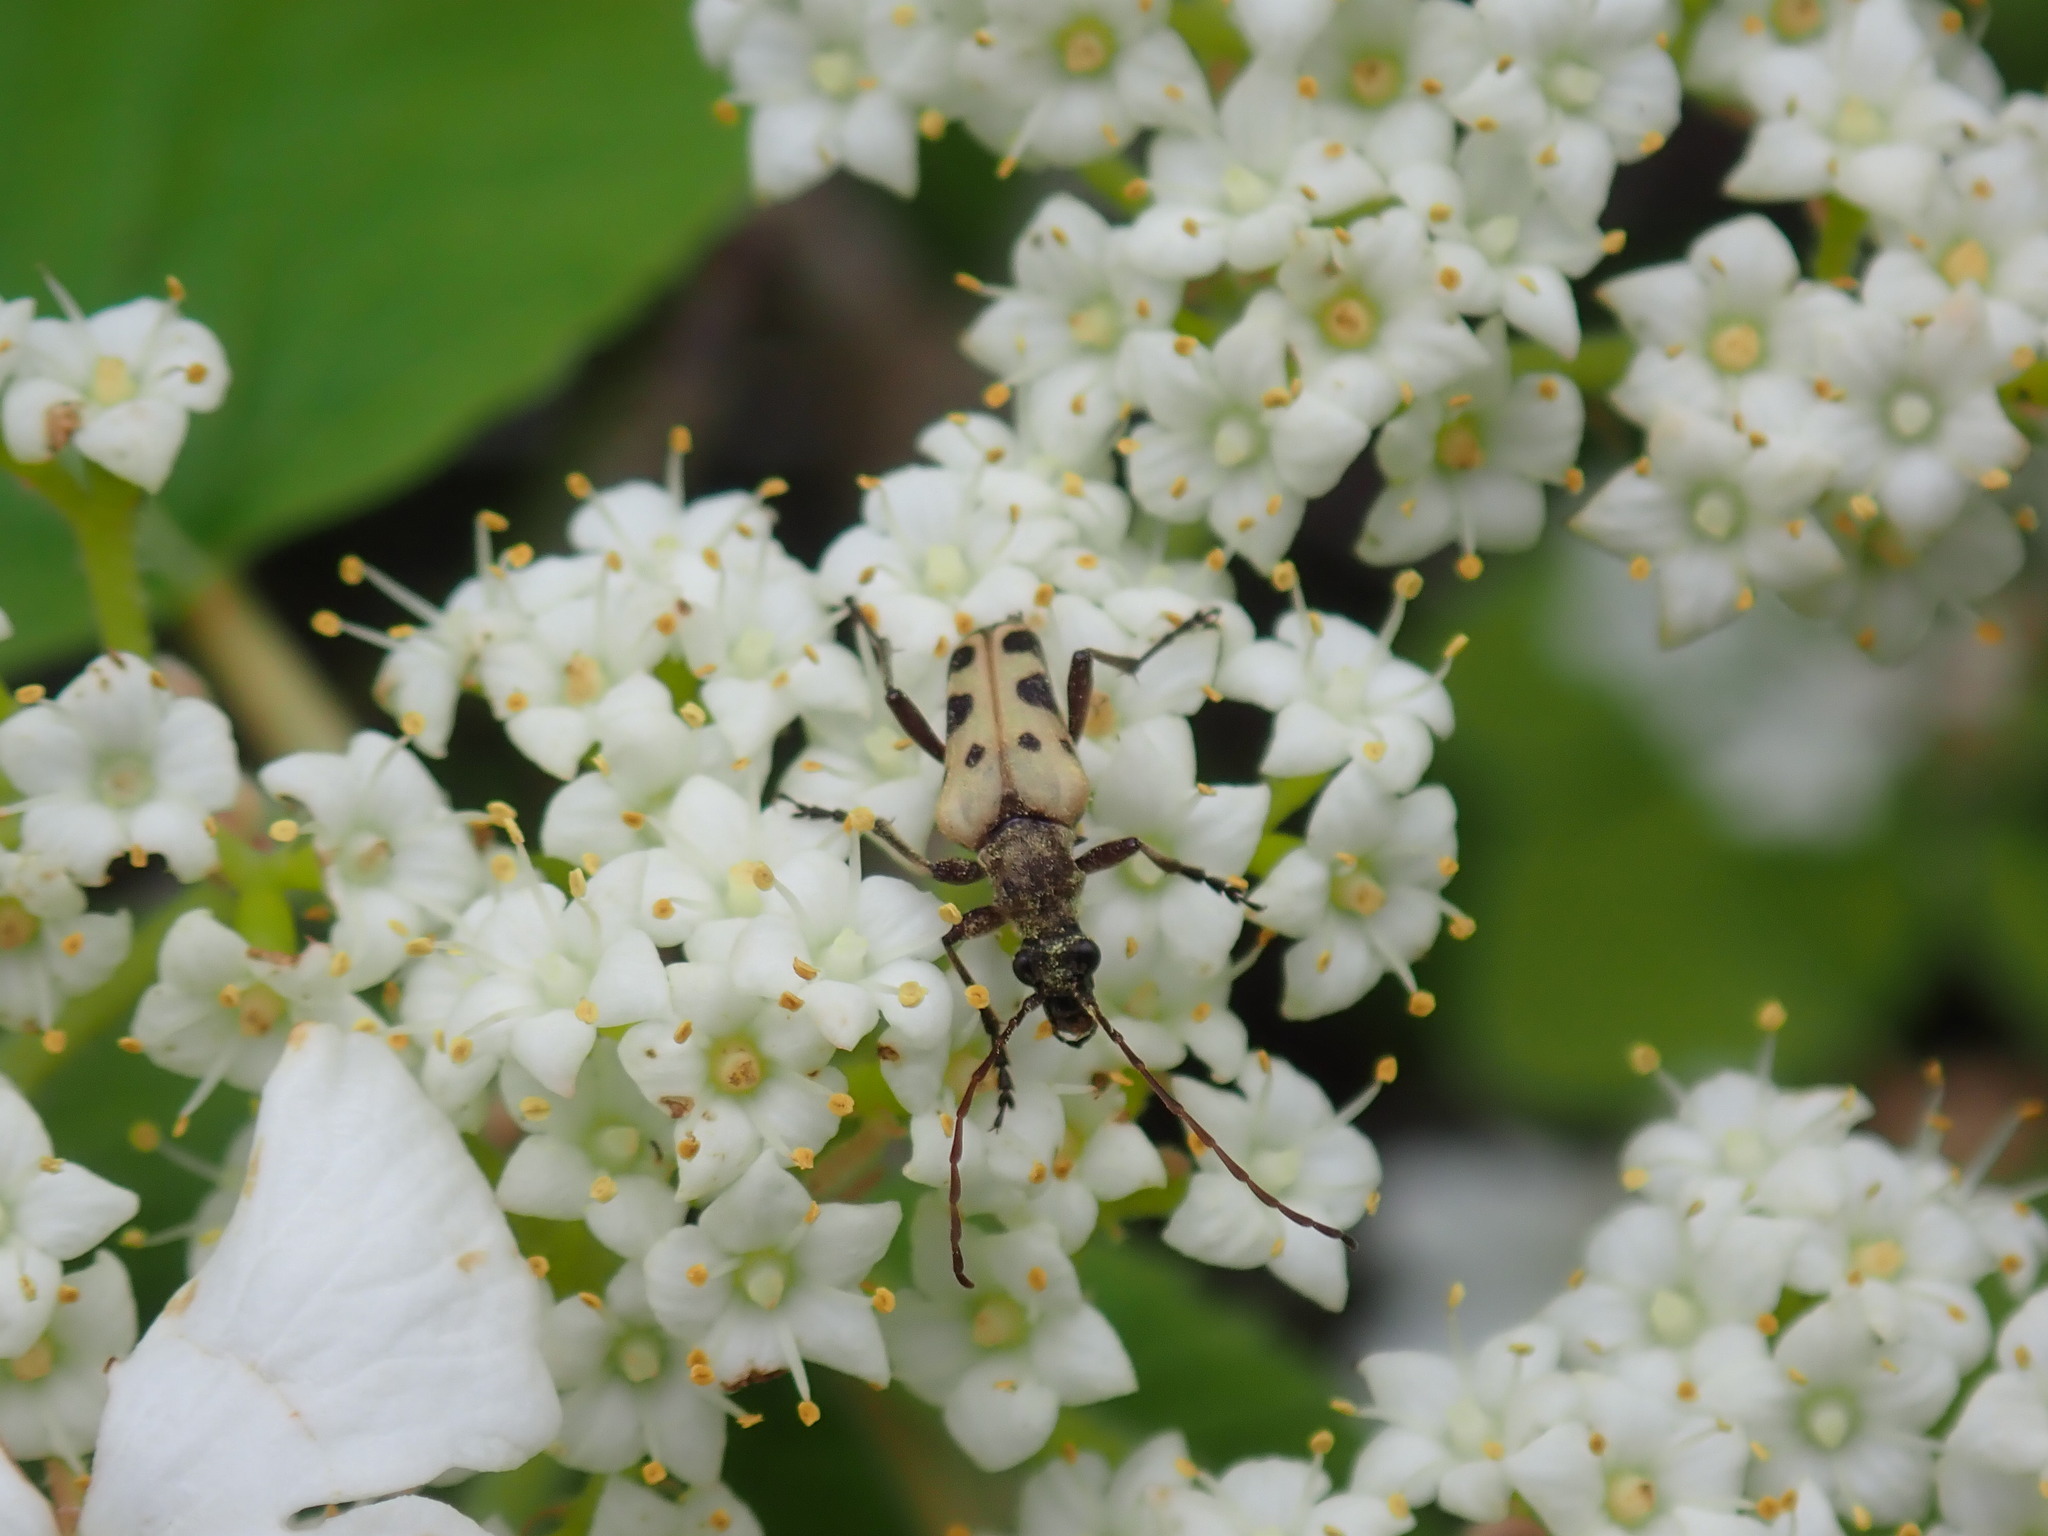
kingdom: Animalia
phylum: Arthropoda
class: Insecta
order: Coleoptera
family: Cerambycidae
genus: Evodinus
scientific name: Evodinus monticola
